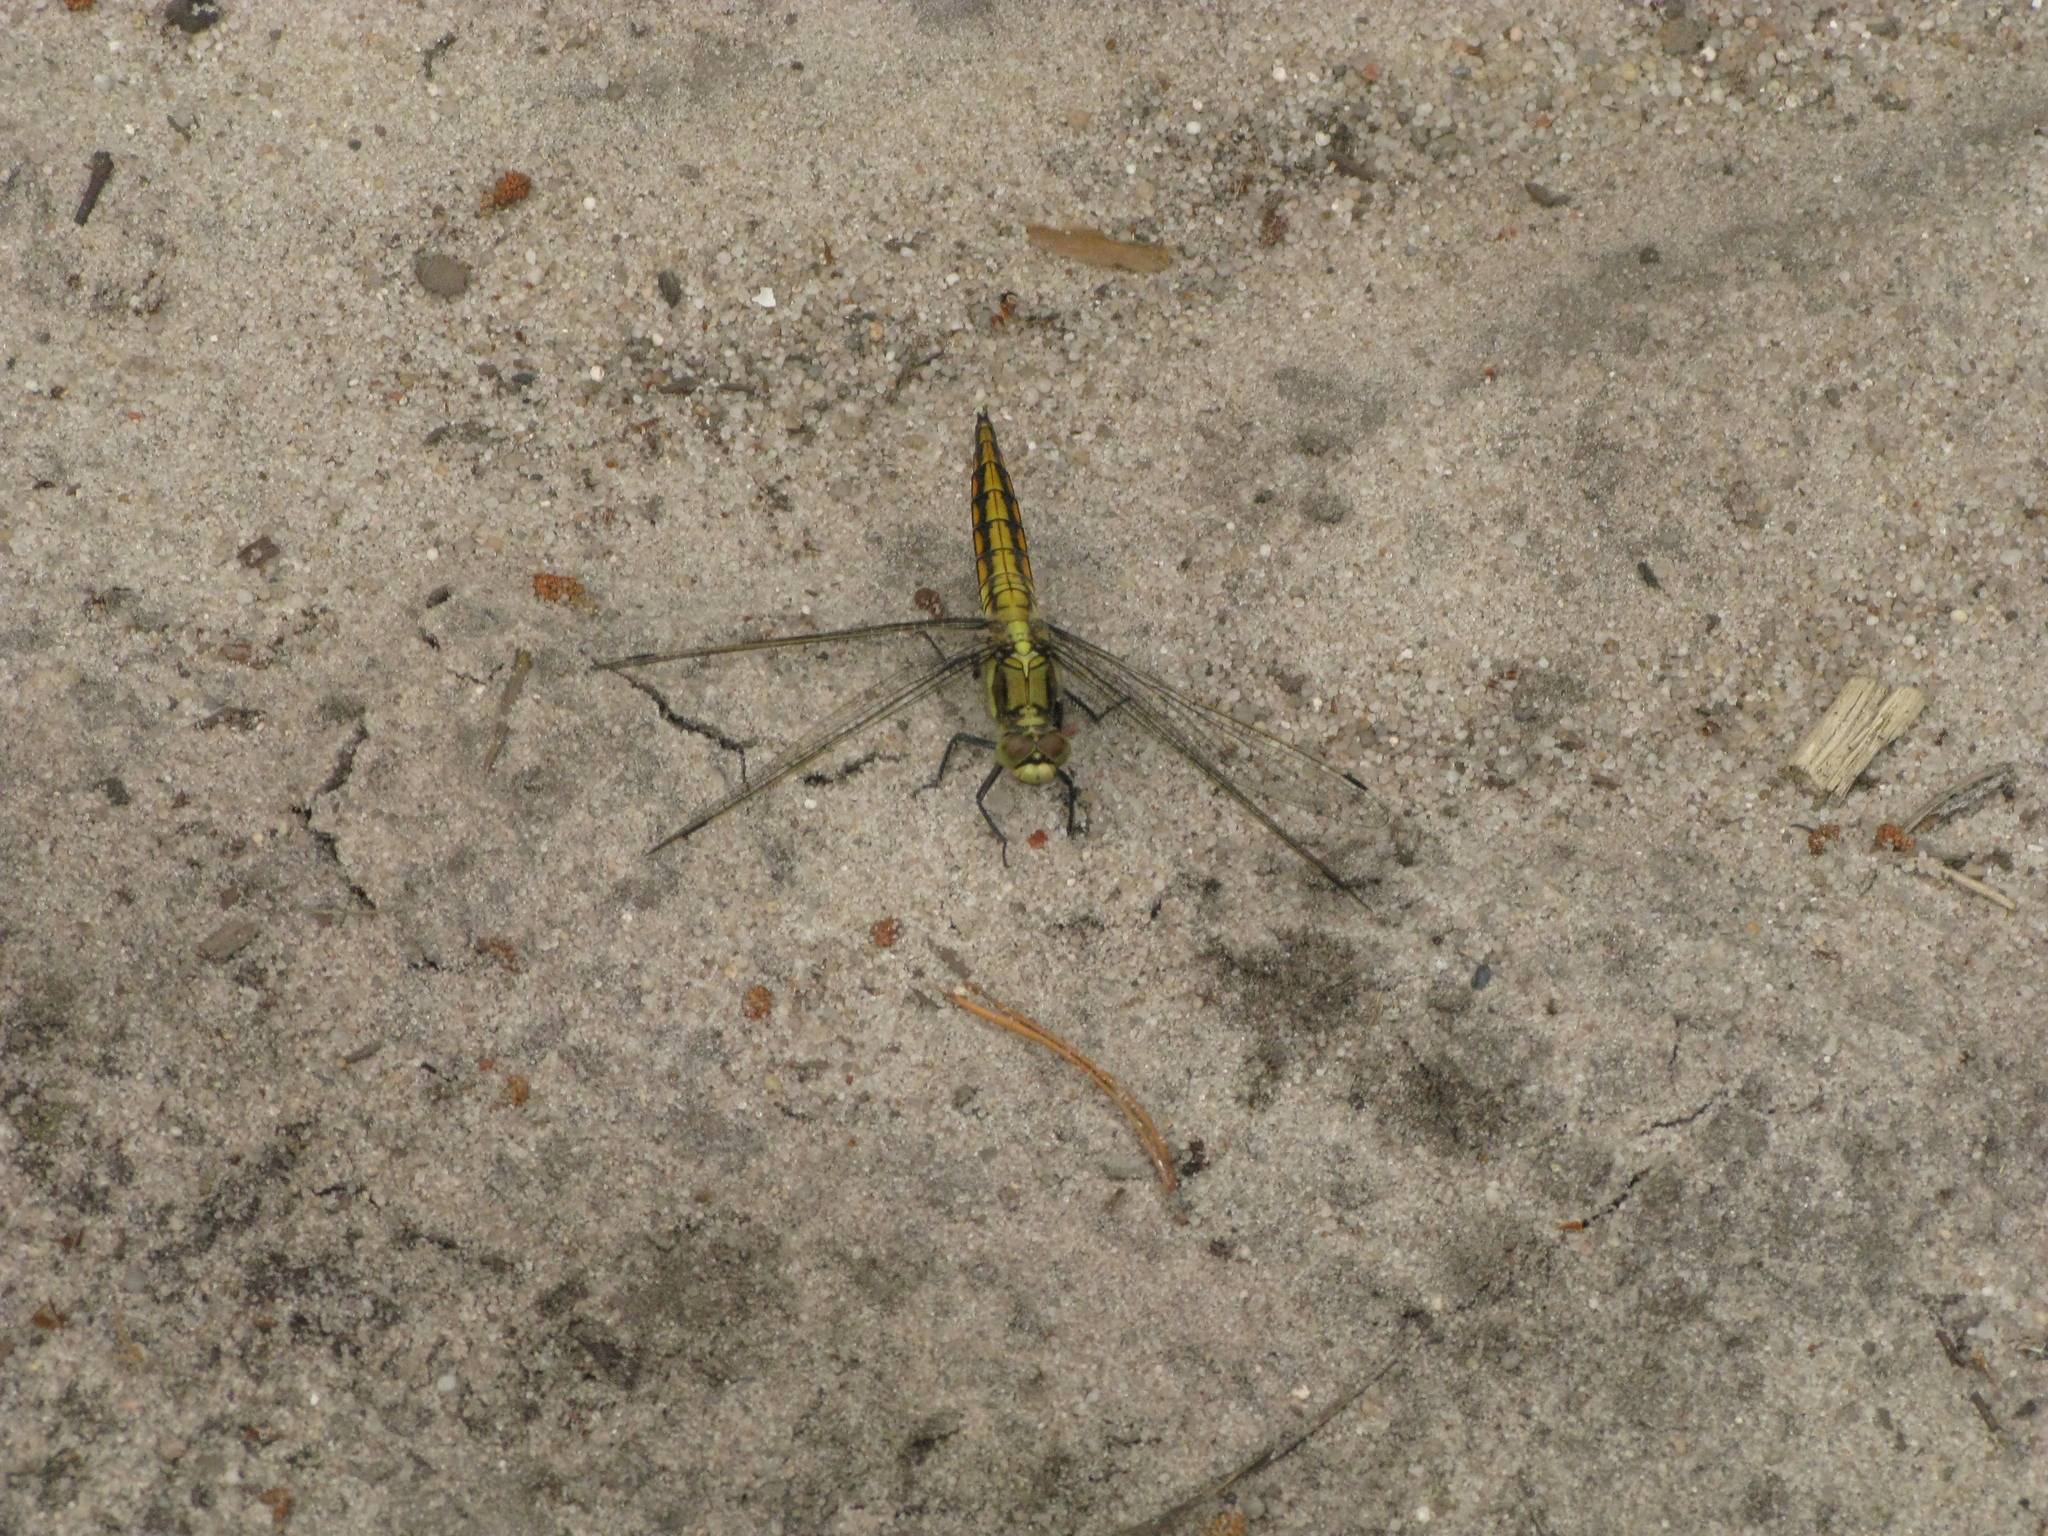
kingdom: Animalia
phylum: Arthropoda
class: Insecta
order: Odonata
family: Libellulidae
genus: Orthetrum
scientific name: Orthetrum cancellatum
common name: Black-tailed skimmer
